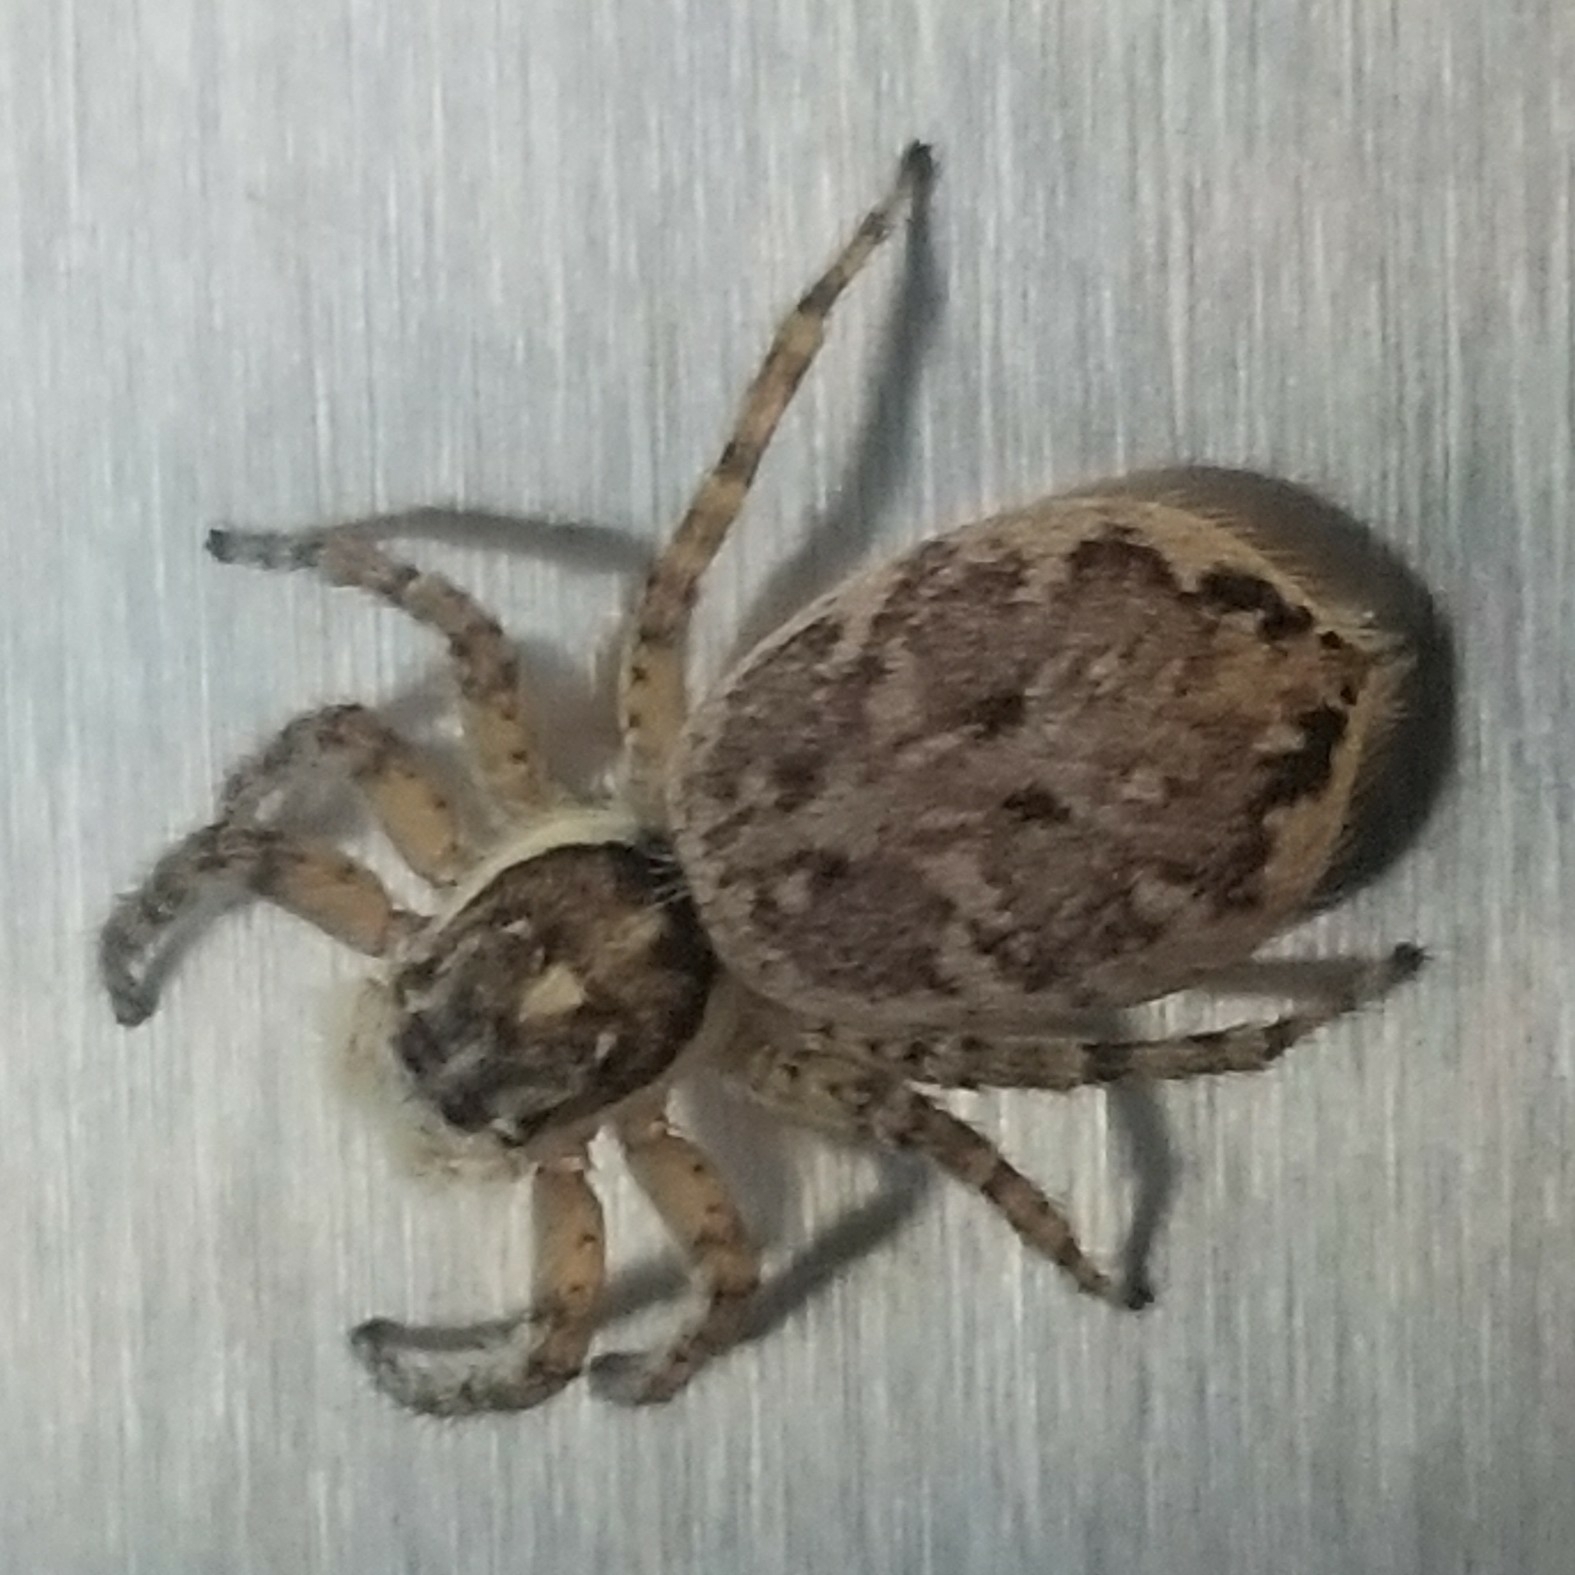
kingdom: Animalia
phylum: Arthropoda
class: Arachnida
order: Araneae
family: Salticidae
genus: Menemerus
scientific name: Menemerus semilimbatus
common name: Jumping spider
